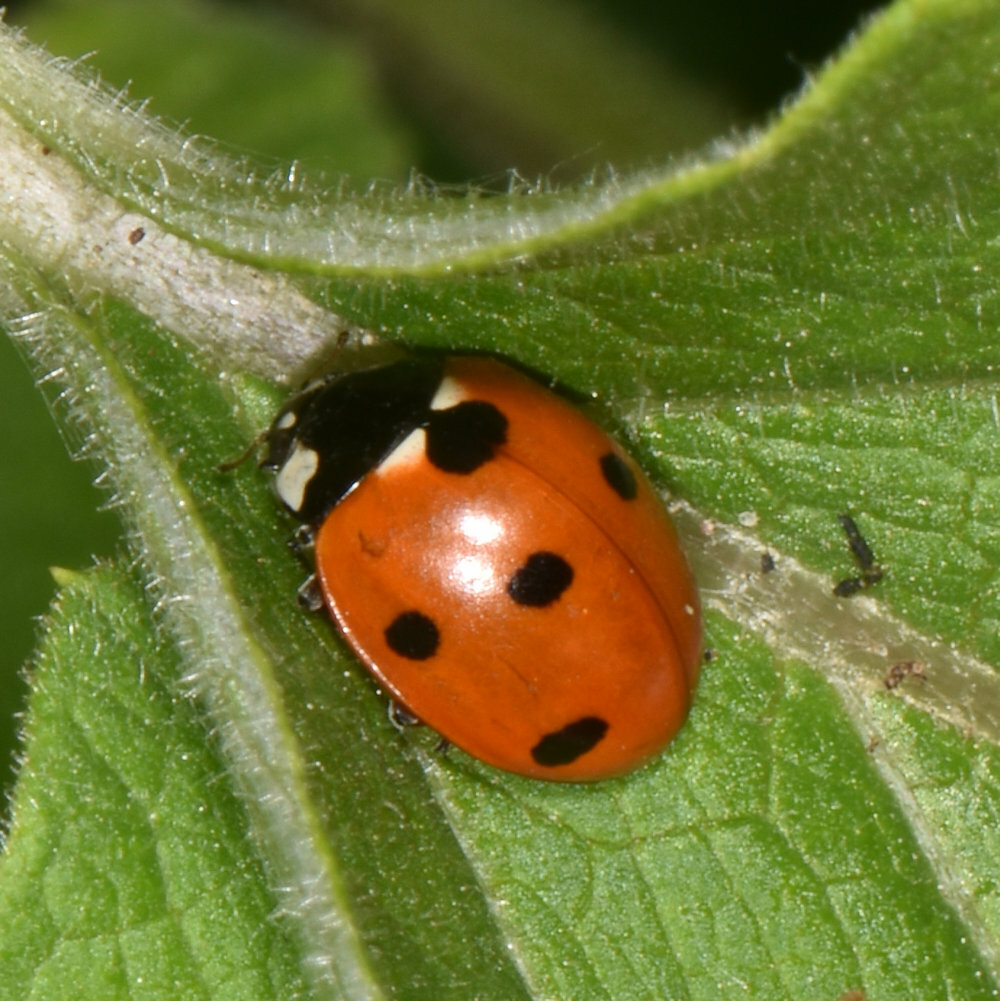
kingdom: Animalia
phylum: Arthropoda
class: Insecta
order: Coleoptera
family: Coccinellidae
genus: Coccinella
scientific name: Coccinella septempunctata
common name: Sevenspotted lady beetle
